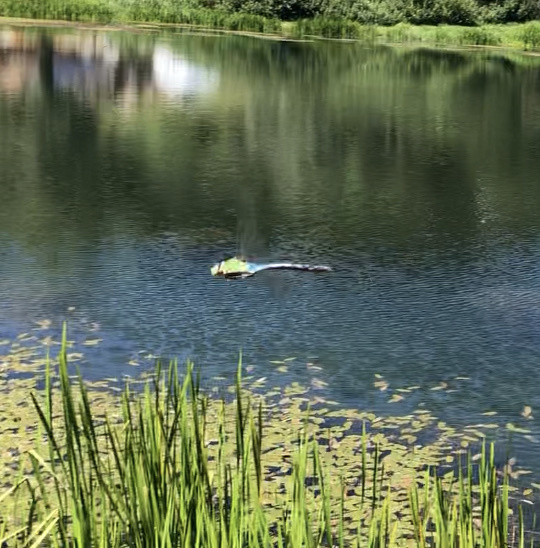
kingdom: Animalia
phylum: Arthropoda
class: Insecta
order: Odonata
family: Aeshnidae
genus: Anax
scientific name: Anax imperator
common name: Emperor dragonfly
